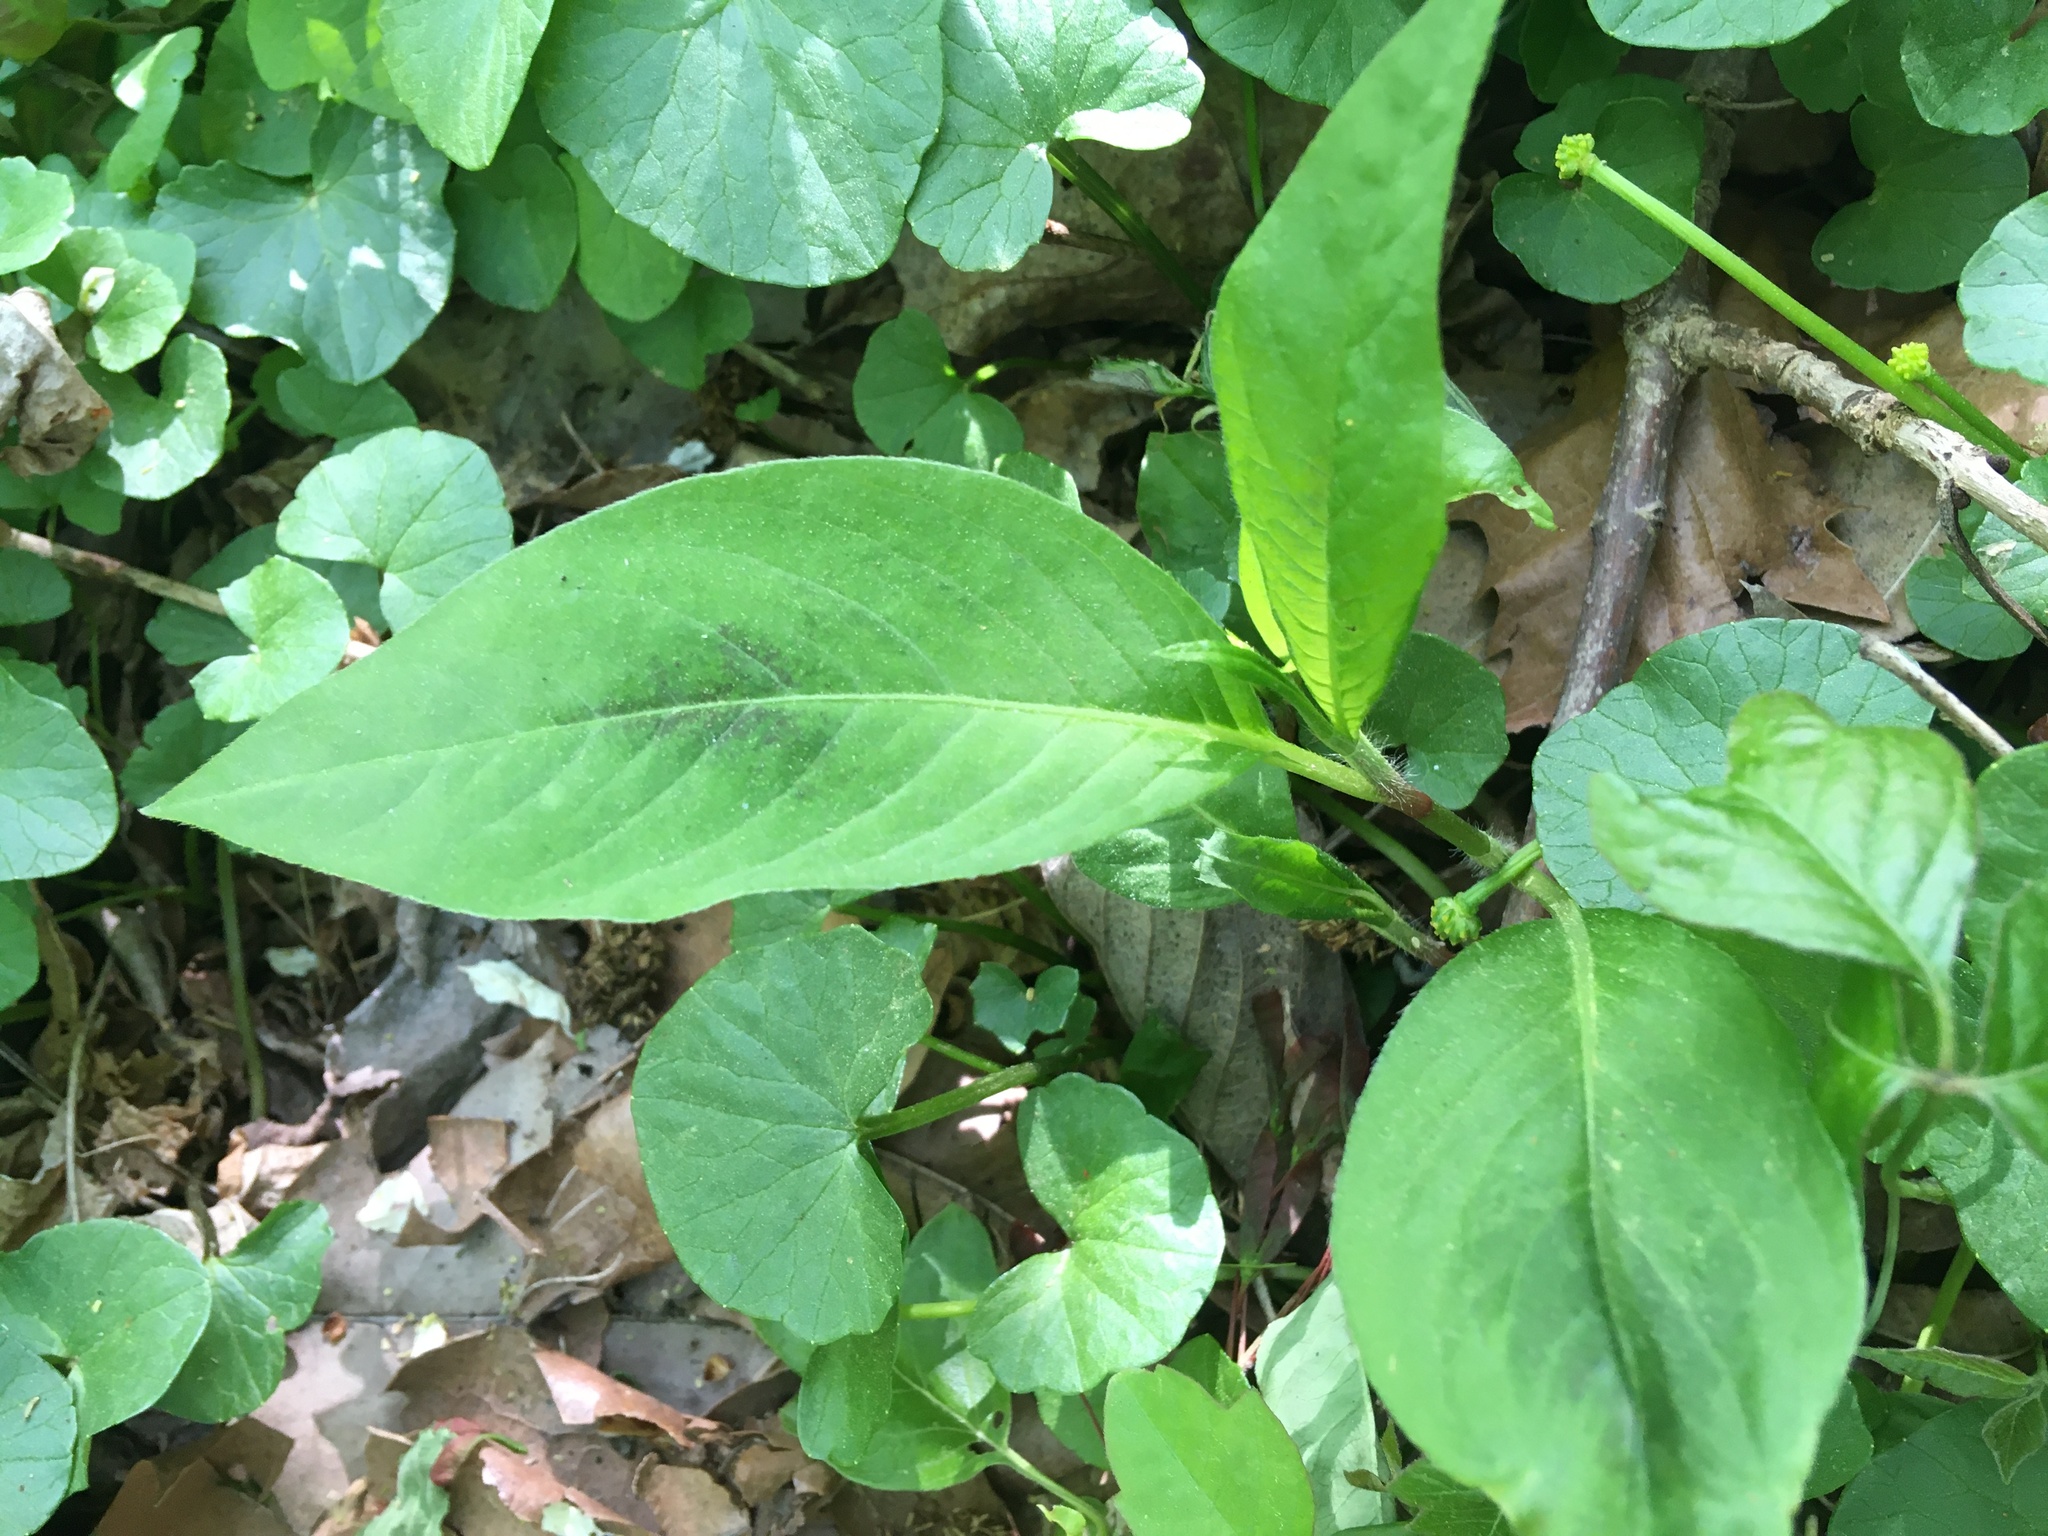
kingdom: Plantae
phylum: Tracheophyta
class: Magnoliopsida
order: Caryophyllales
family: Polygonaceae
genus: Persicaria
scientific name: Persicaria virginiana
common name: Jumpseed
